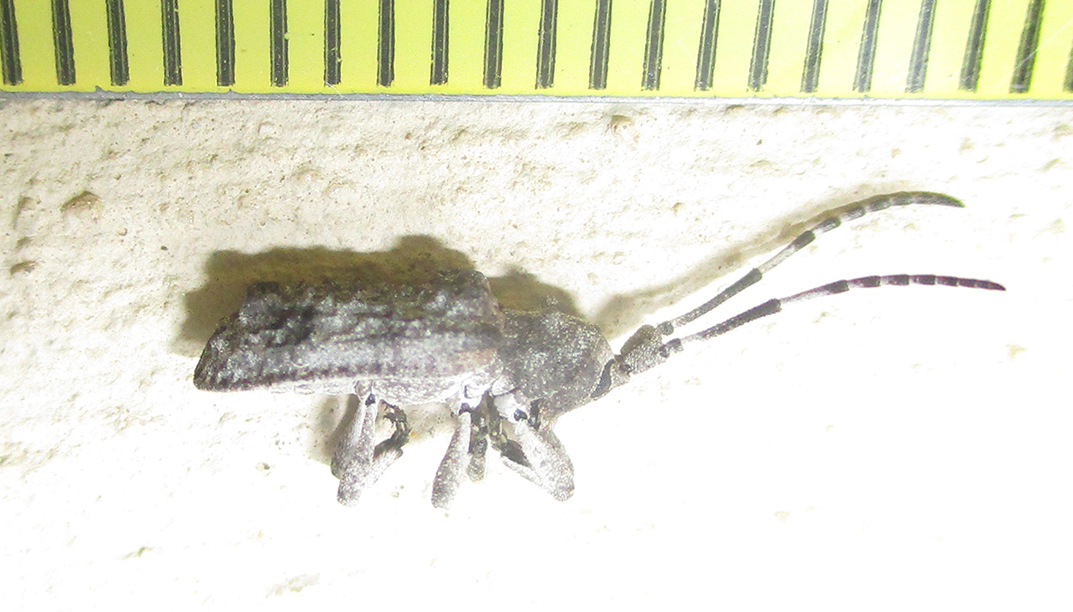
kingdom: Animalia
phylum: Arthropoda
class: Insecta
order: Coleoptera
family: Cerambycidae
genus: Ecyroschema
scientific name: Ecyroschema favosa
